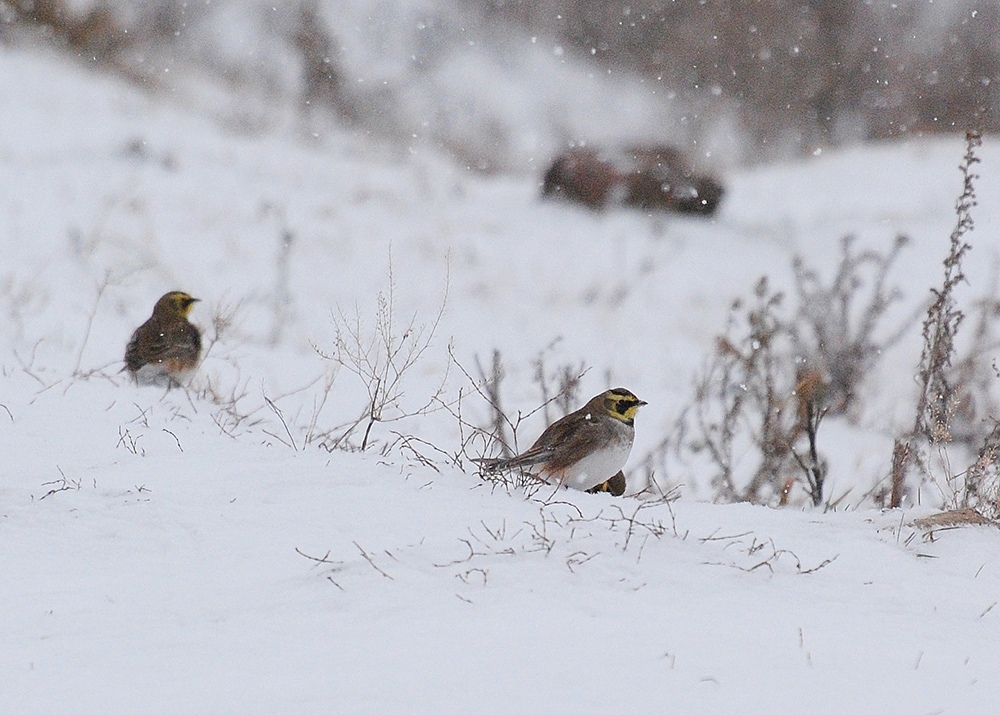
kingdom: Animalia
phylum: Chordata
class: Aves
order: Passeriformes
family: Alaudidae
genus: Eremophila
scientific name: Eremophila alpestris
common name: Horned lark
